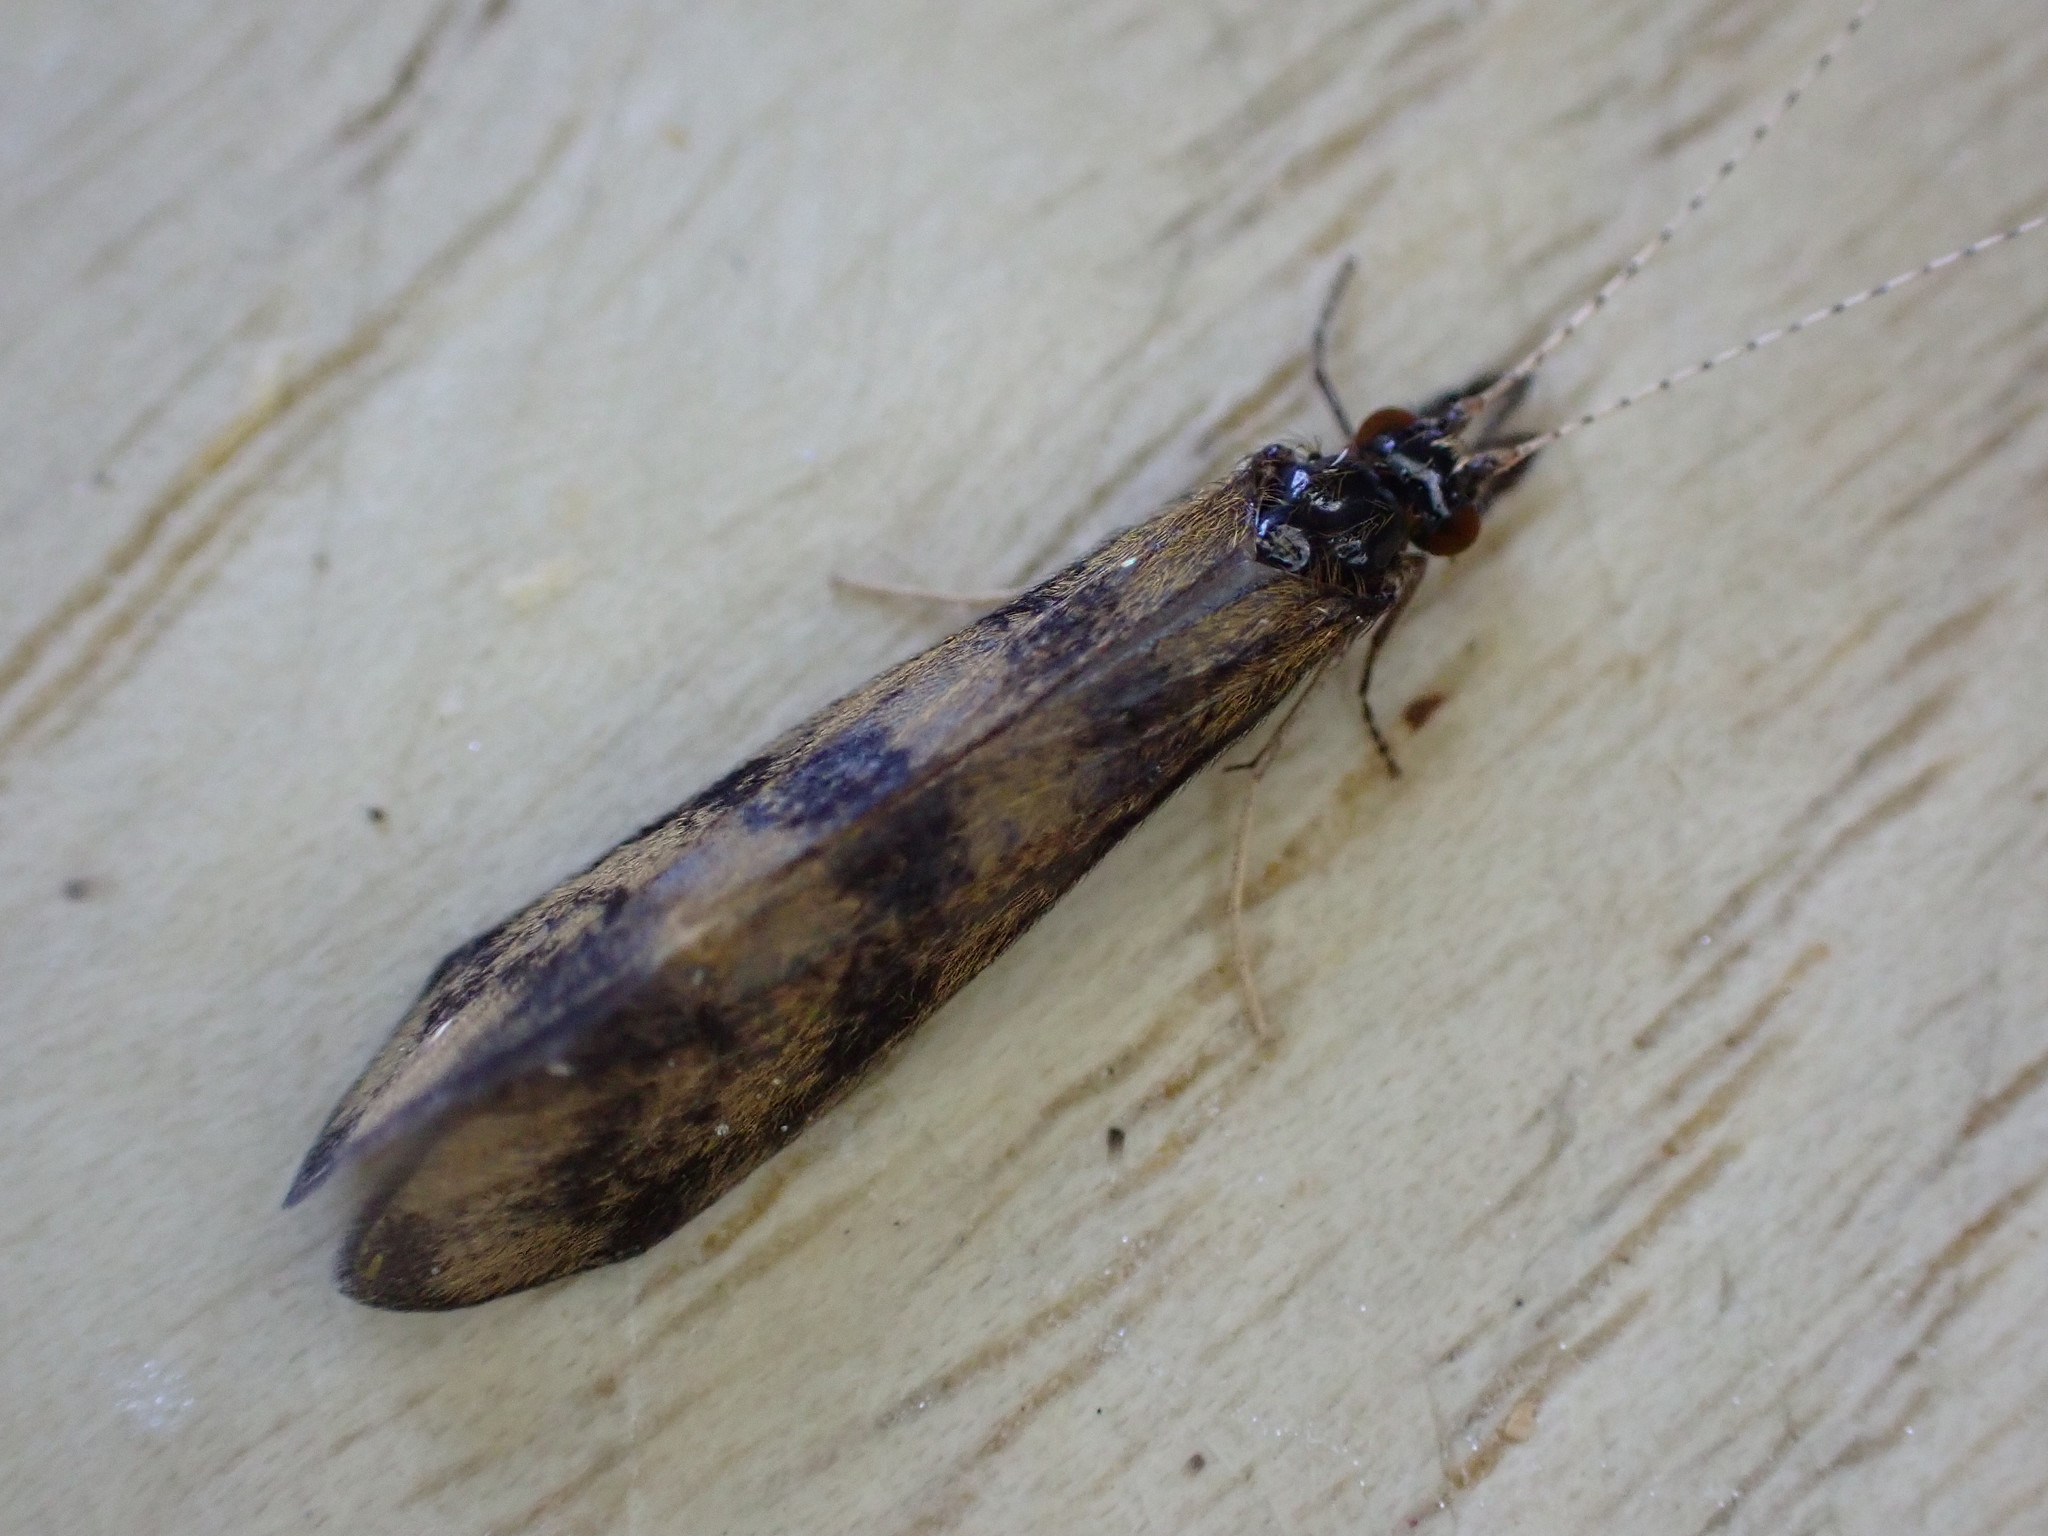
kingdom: Animalia
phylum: Arthropoda
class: Insecta
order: Trichoptera
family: Leptoceridae
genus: Mystacides
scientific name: Mystacides longicornis
